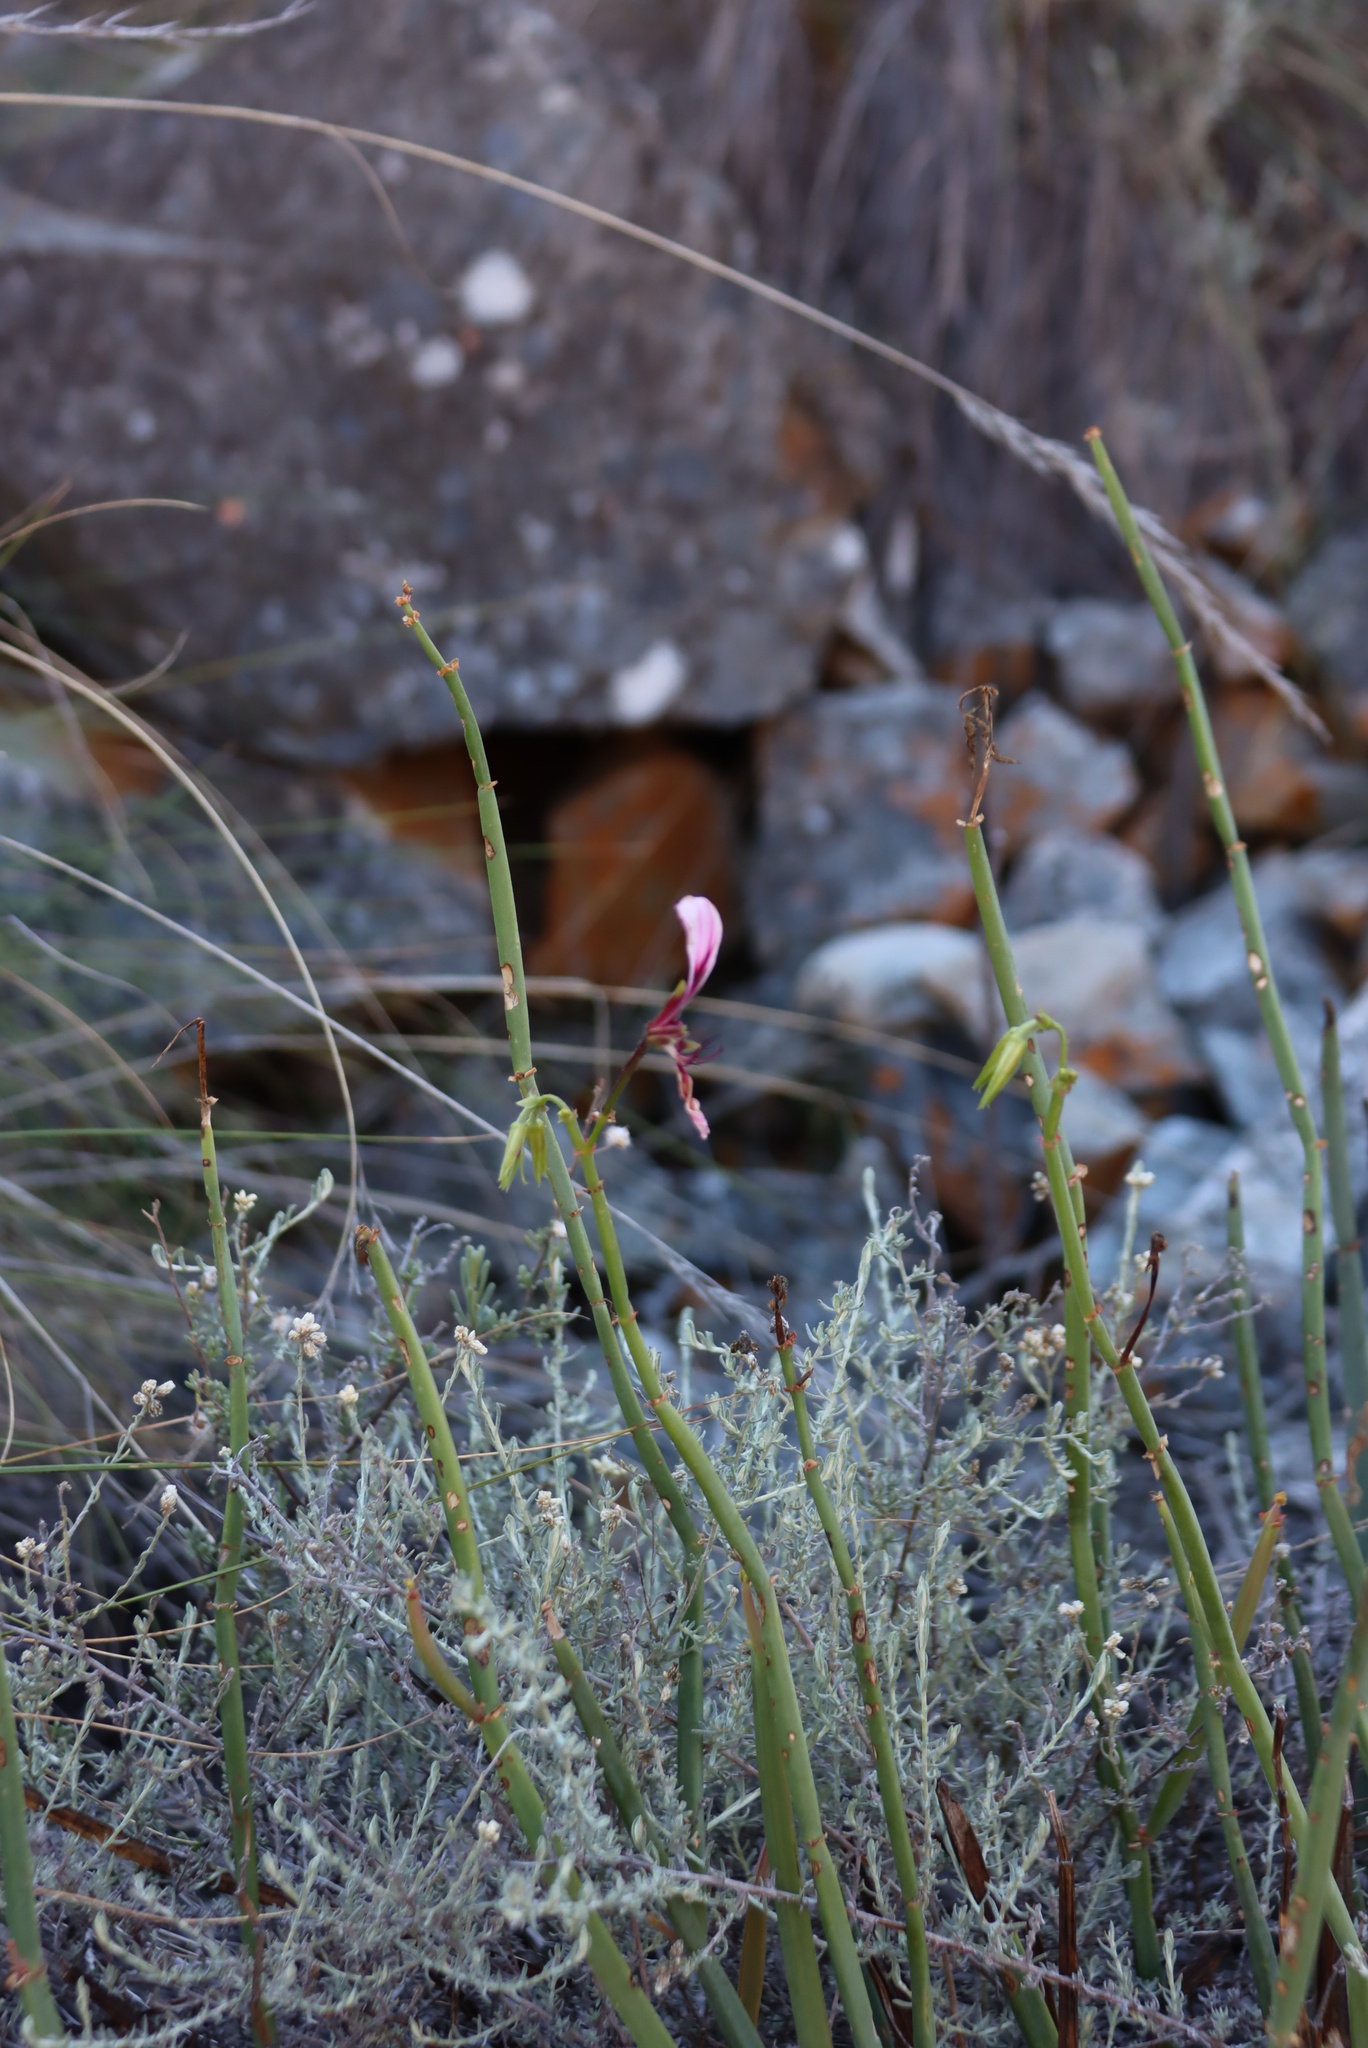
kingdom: Plantae
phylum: Tracheophyta
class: Magnoliopsida
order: Geraniales
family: Geraniaceae
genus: Pelargonium
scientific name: Pelargonium tetragonum
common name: Square-stack crane's-bill
